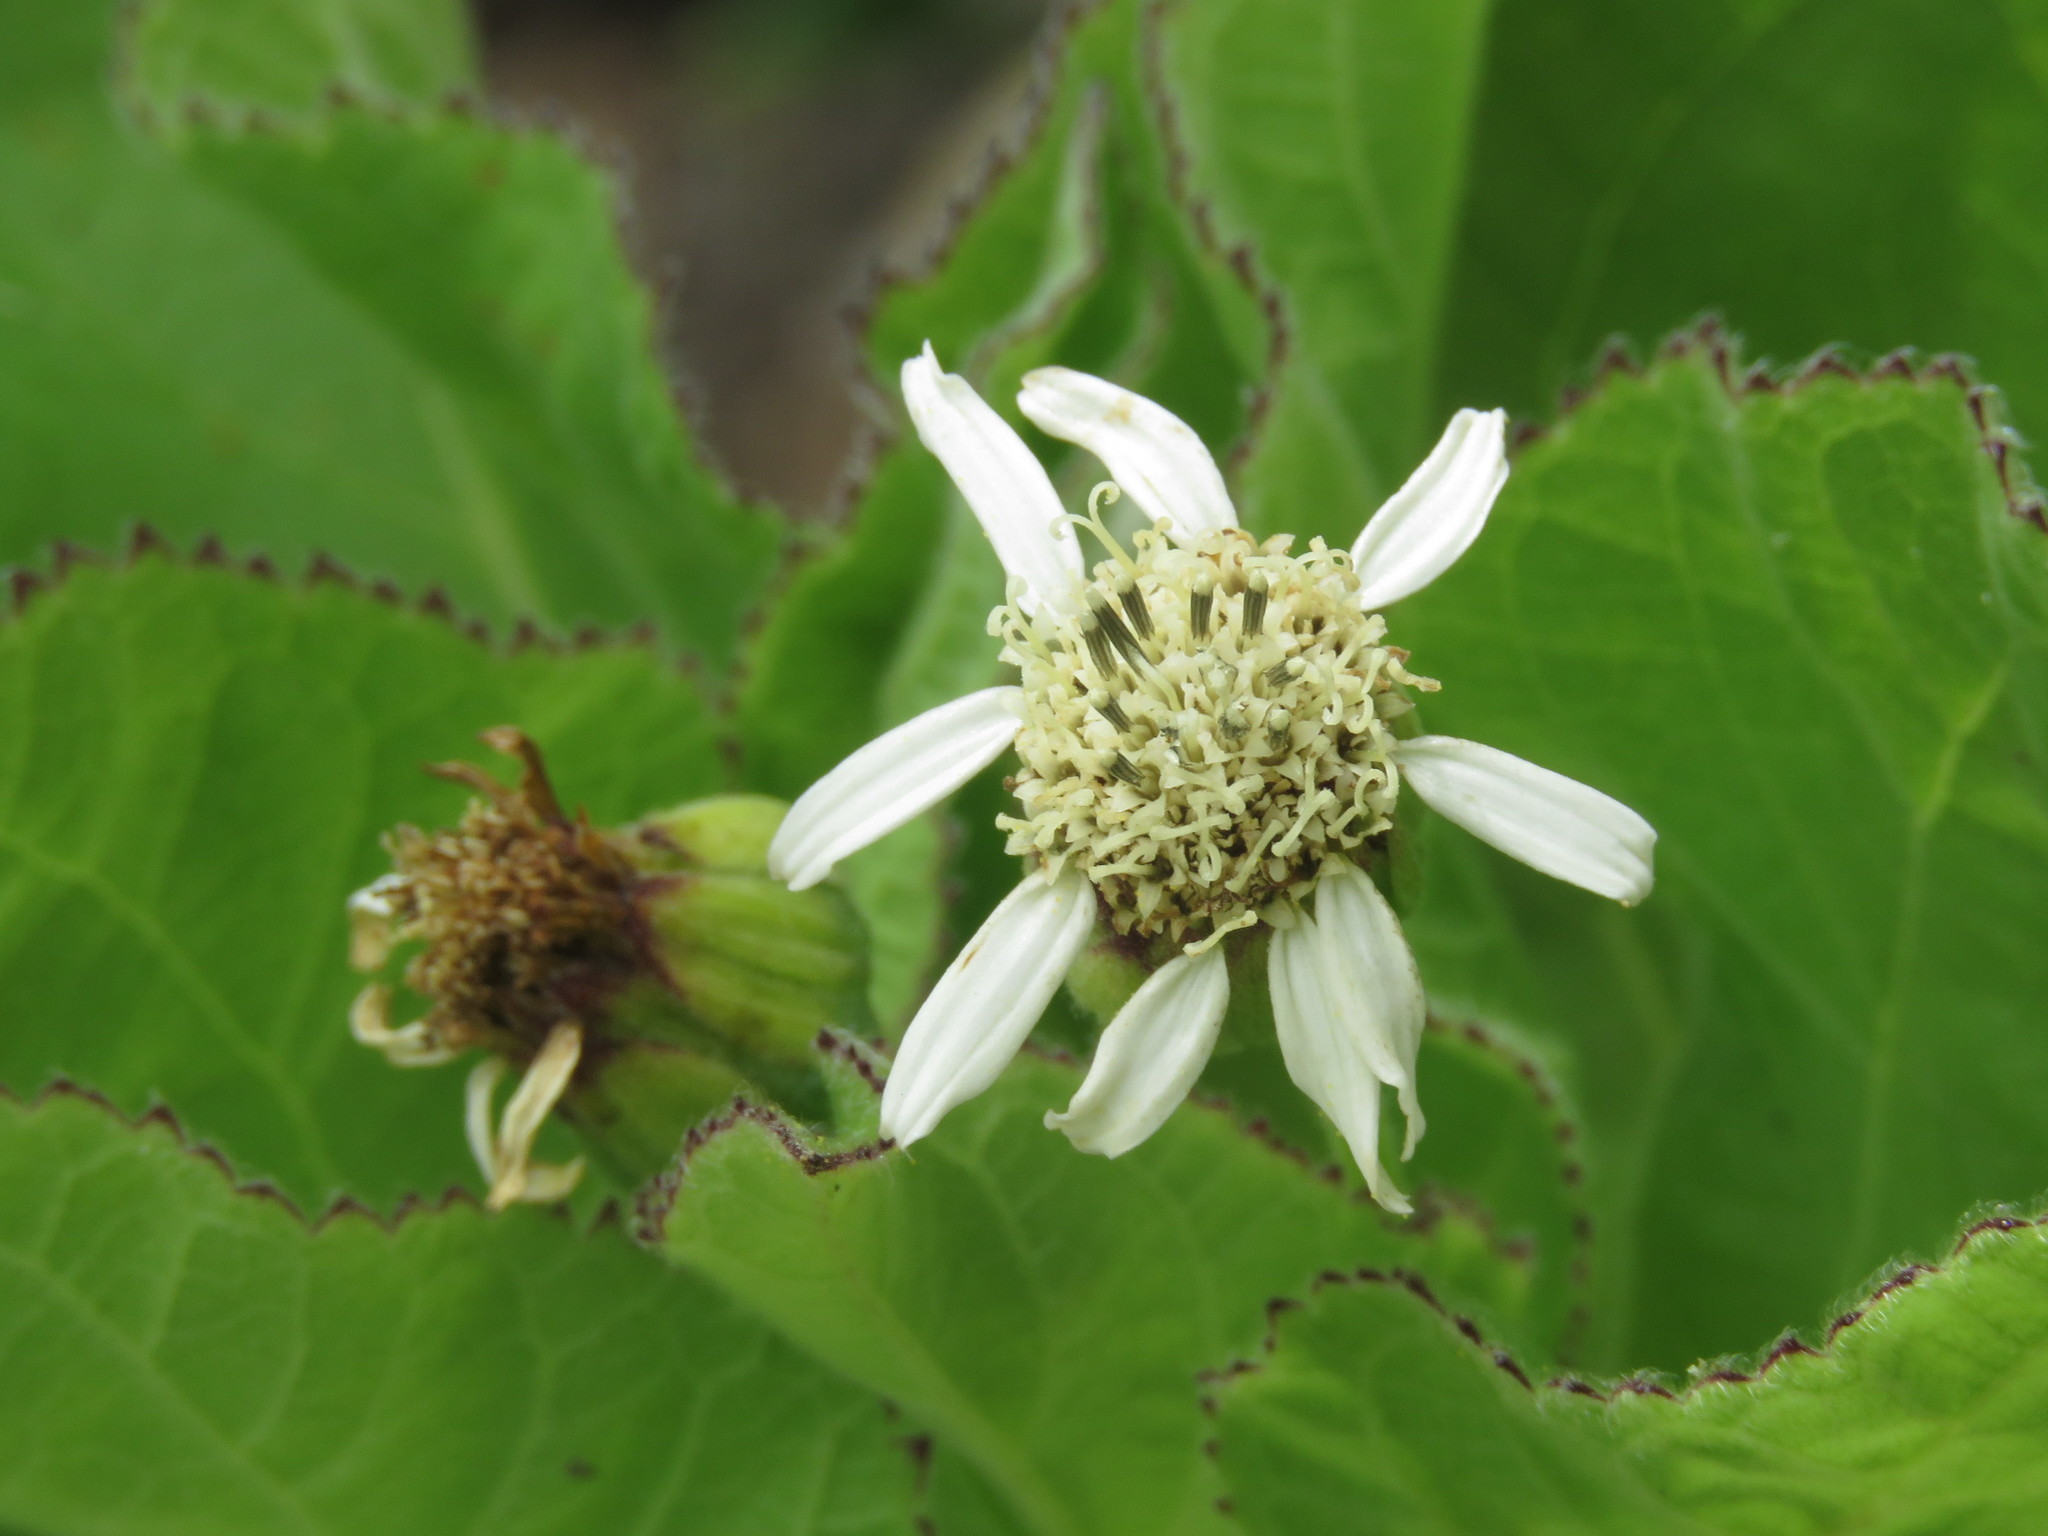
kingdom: Plantae
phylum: Tracheophyta
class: Magnoliopsida
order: Asterales
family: Asteraceae
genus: Scalesia
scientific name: Scalesia affinis
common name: Radiate-headed scalesia
